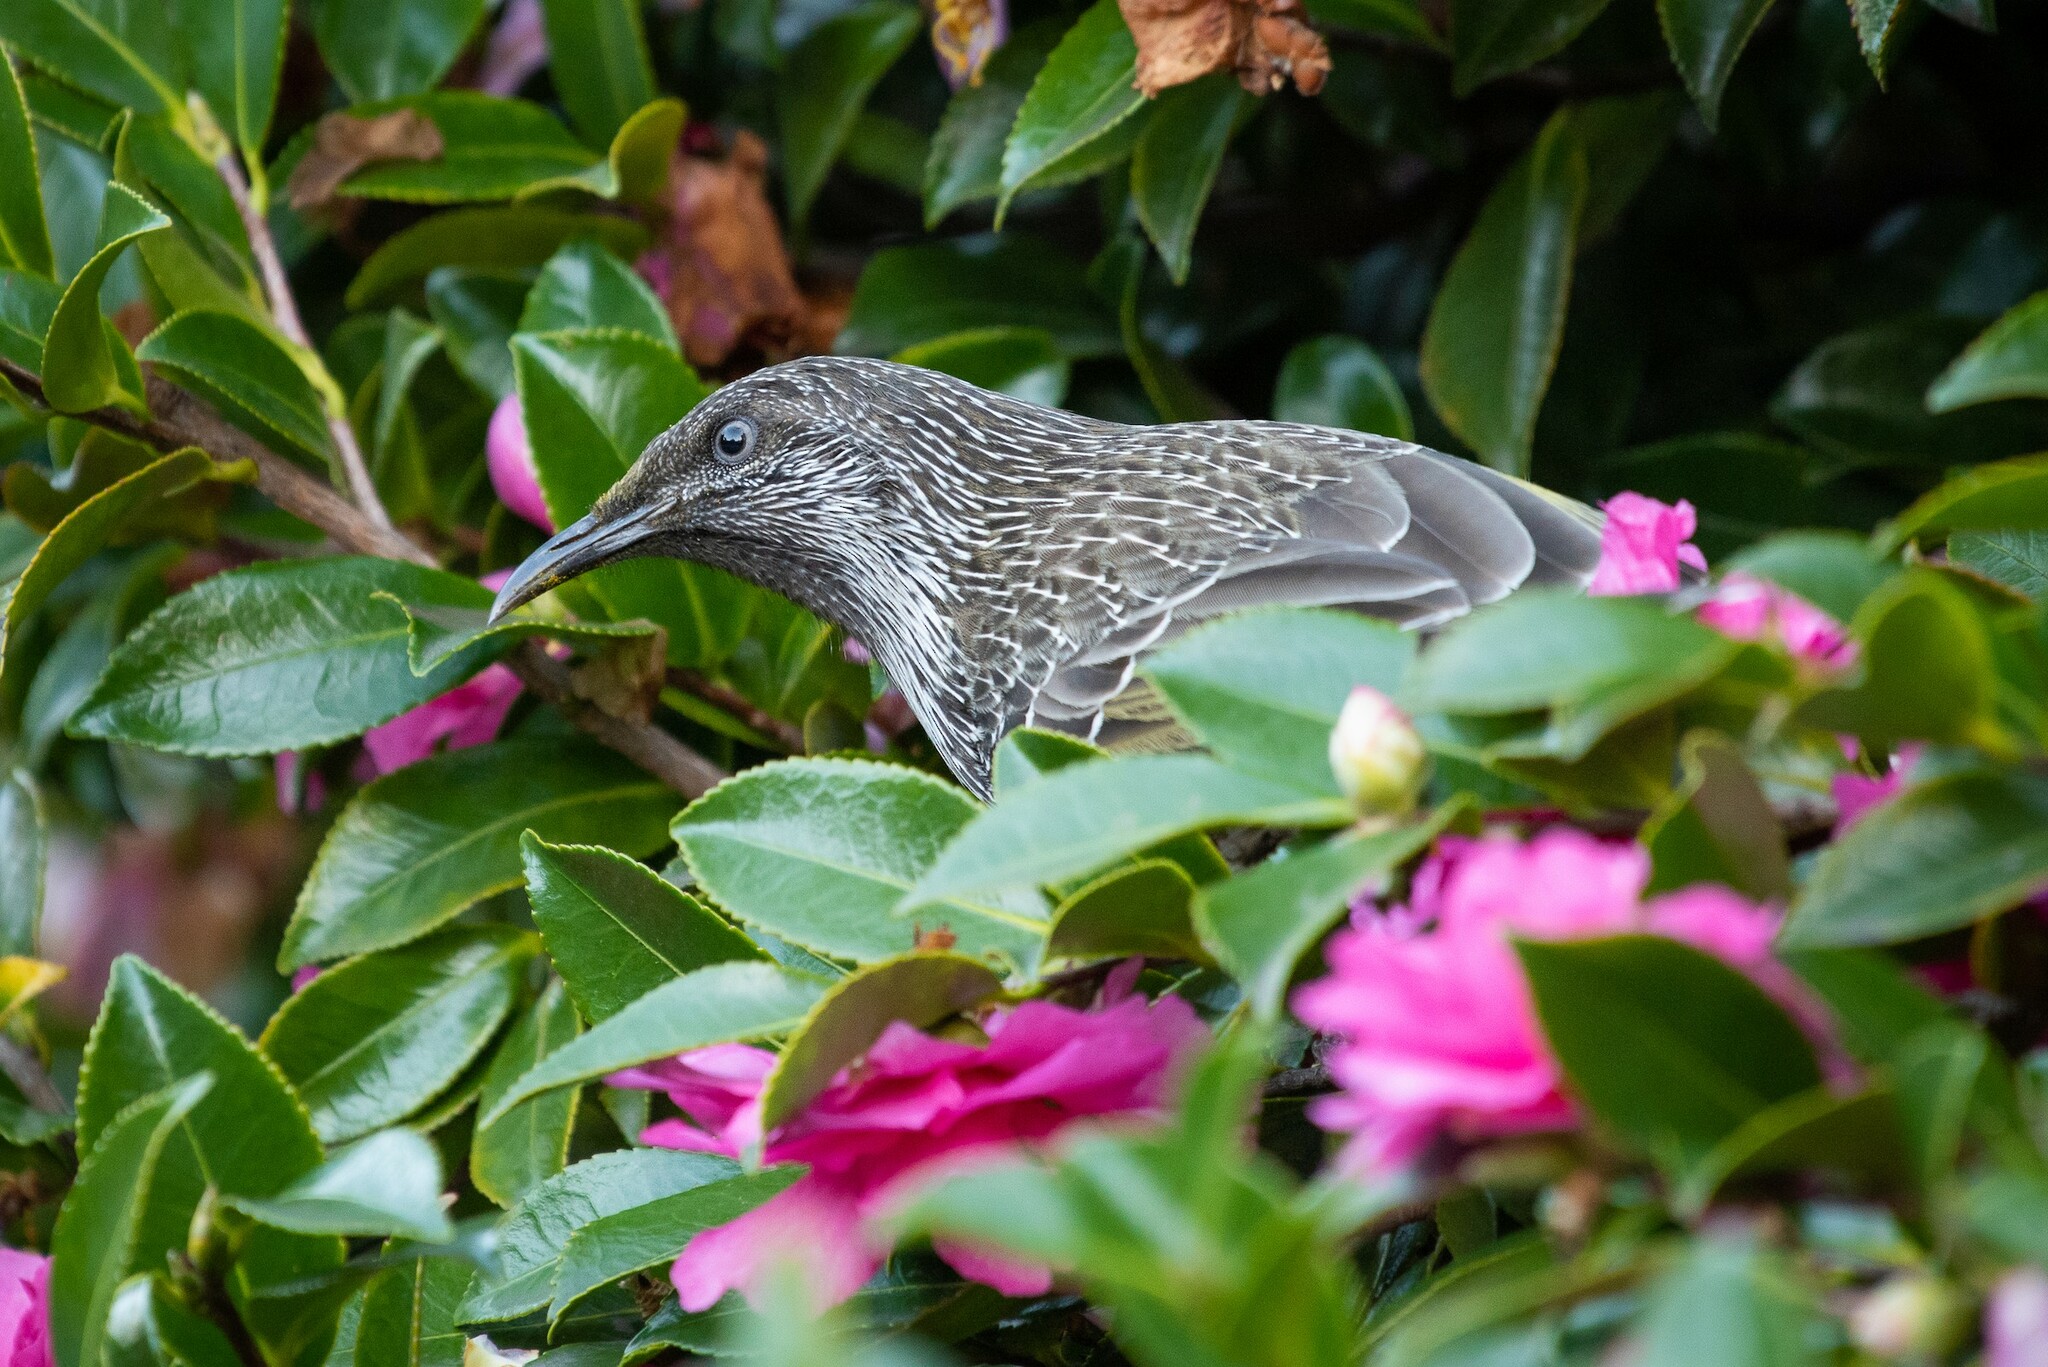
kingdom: Animalia
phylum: Chordata
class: Aves
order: Passeriformes
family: Meliphagidae
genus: Anthochaera
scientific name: Anthochaera chrysoptera
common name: Little wattlebird
